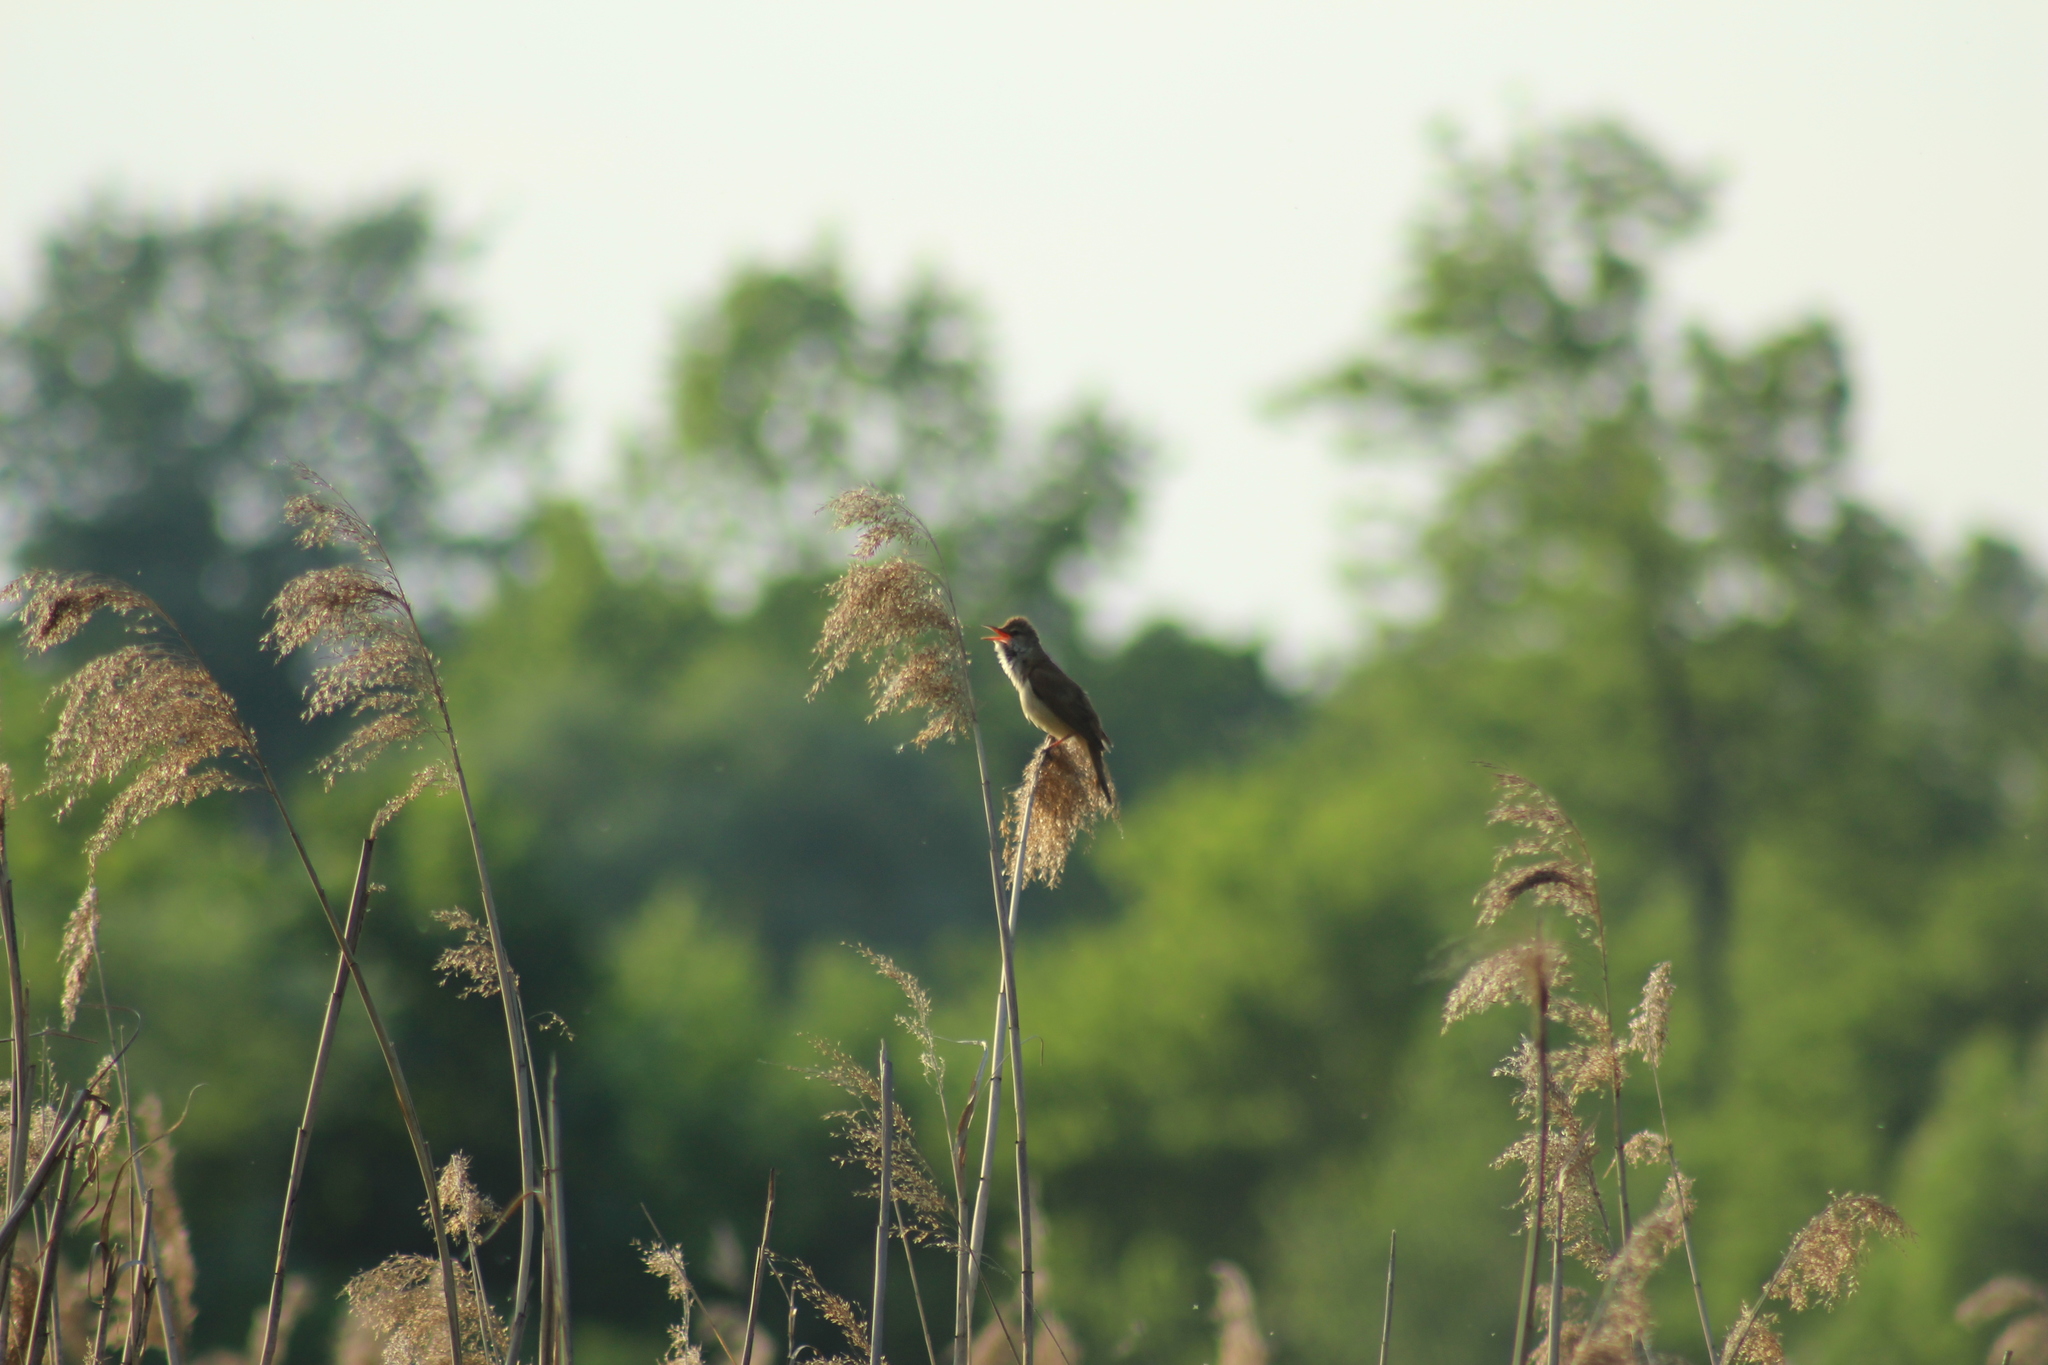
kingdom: Animalia
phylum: Chordata
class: Aves
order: Passeriformes
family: Acrocephalidae
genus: Acrocephalus
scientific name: Acrocephalus arundinaceus
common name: Great reed warbler
